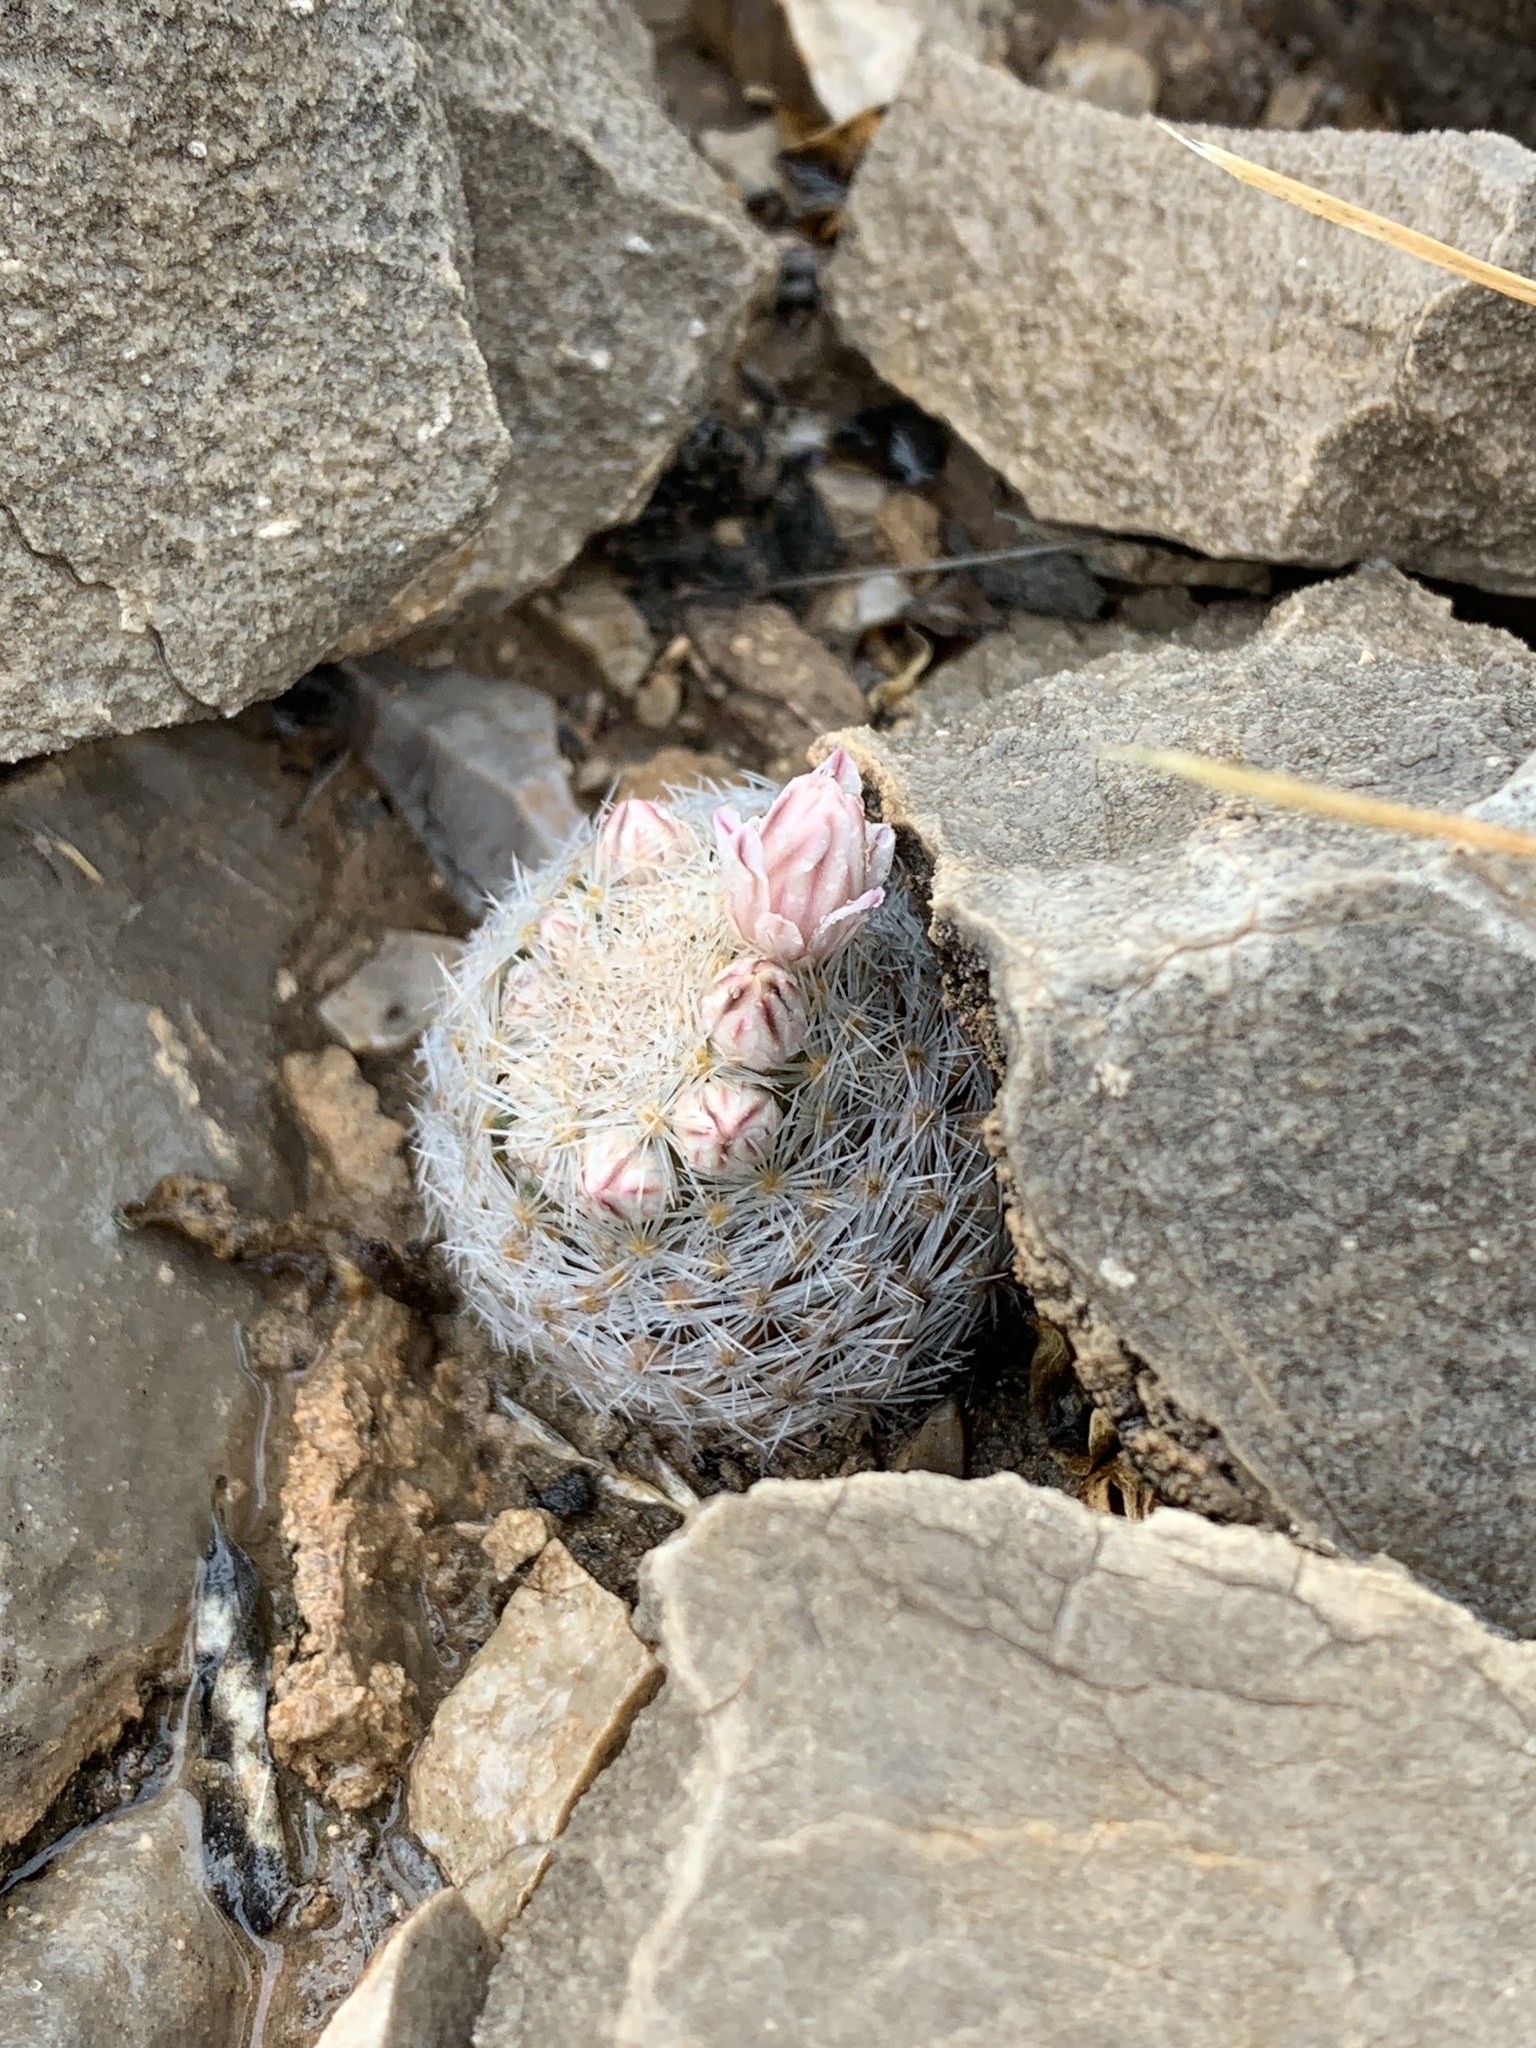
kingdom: Plantae
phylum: Tracheophyta
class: Magnoliopsida
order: Caryophyllales
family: Cactaceae
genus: Mammillaria
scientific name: Mammillaria lasiacantha
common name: Lace-spine nipple cactus
